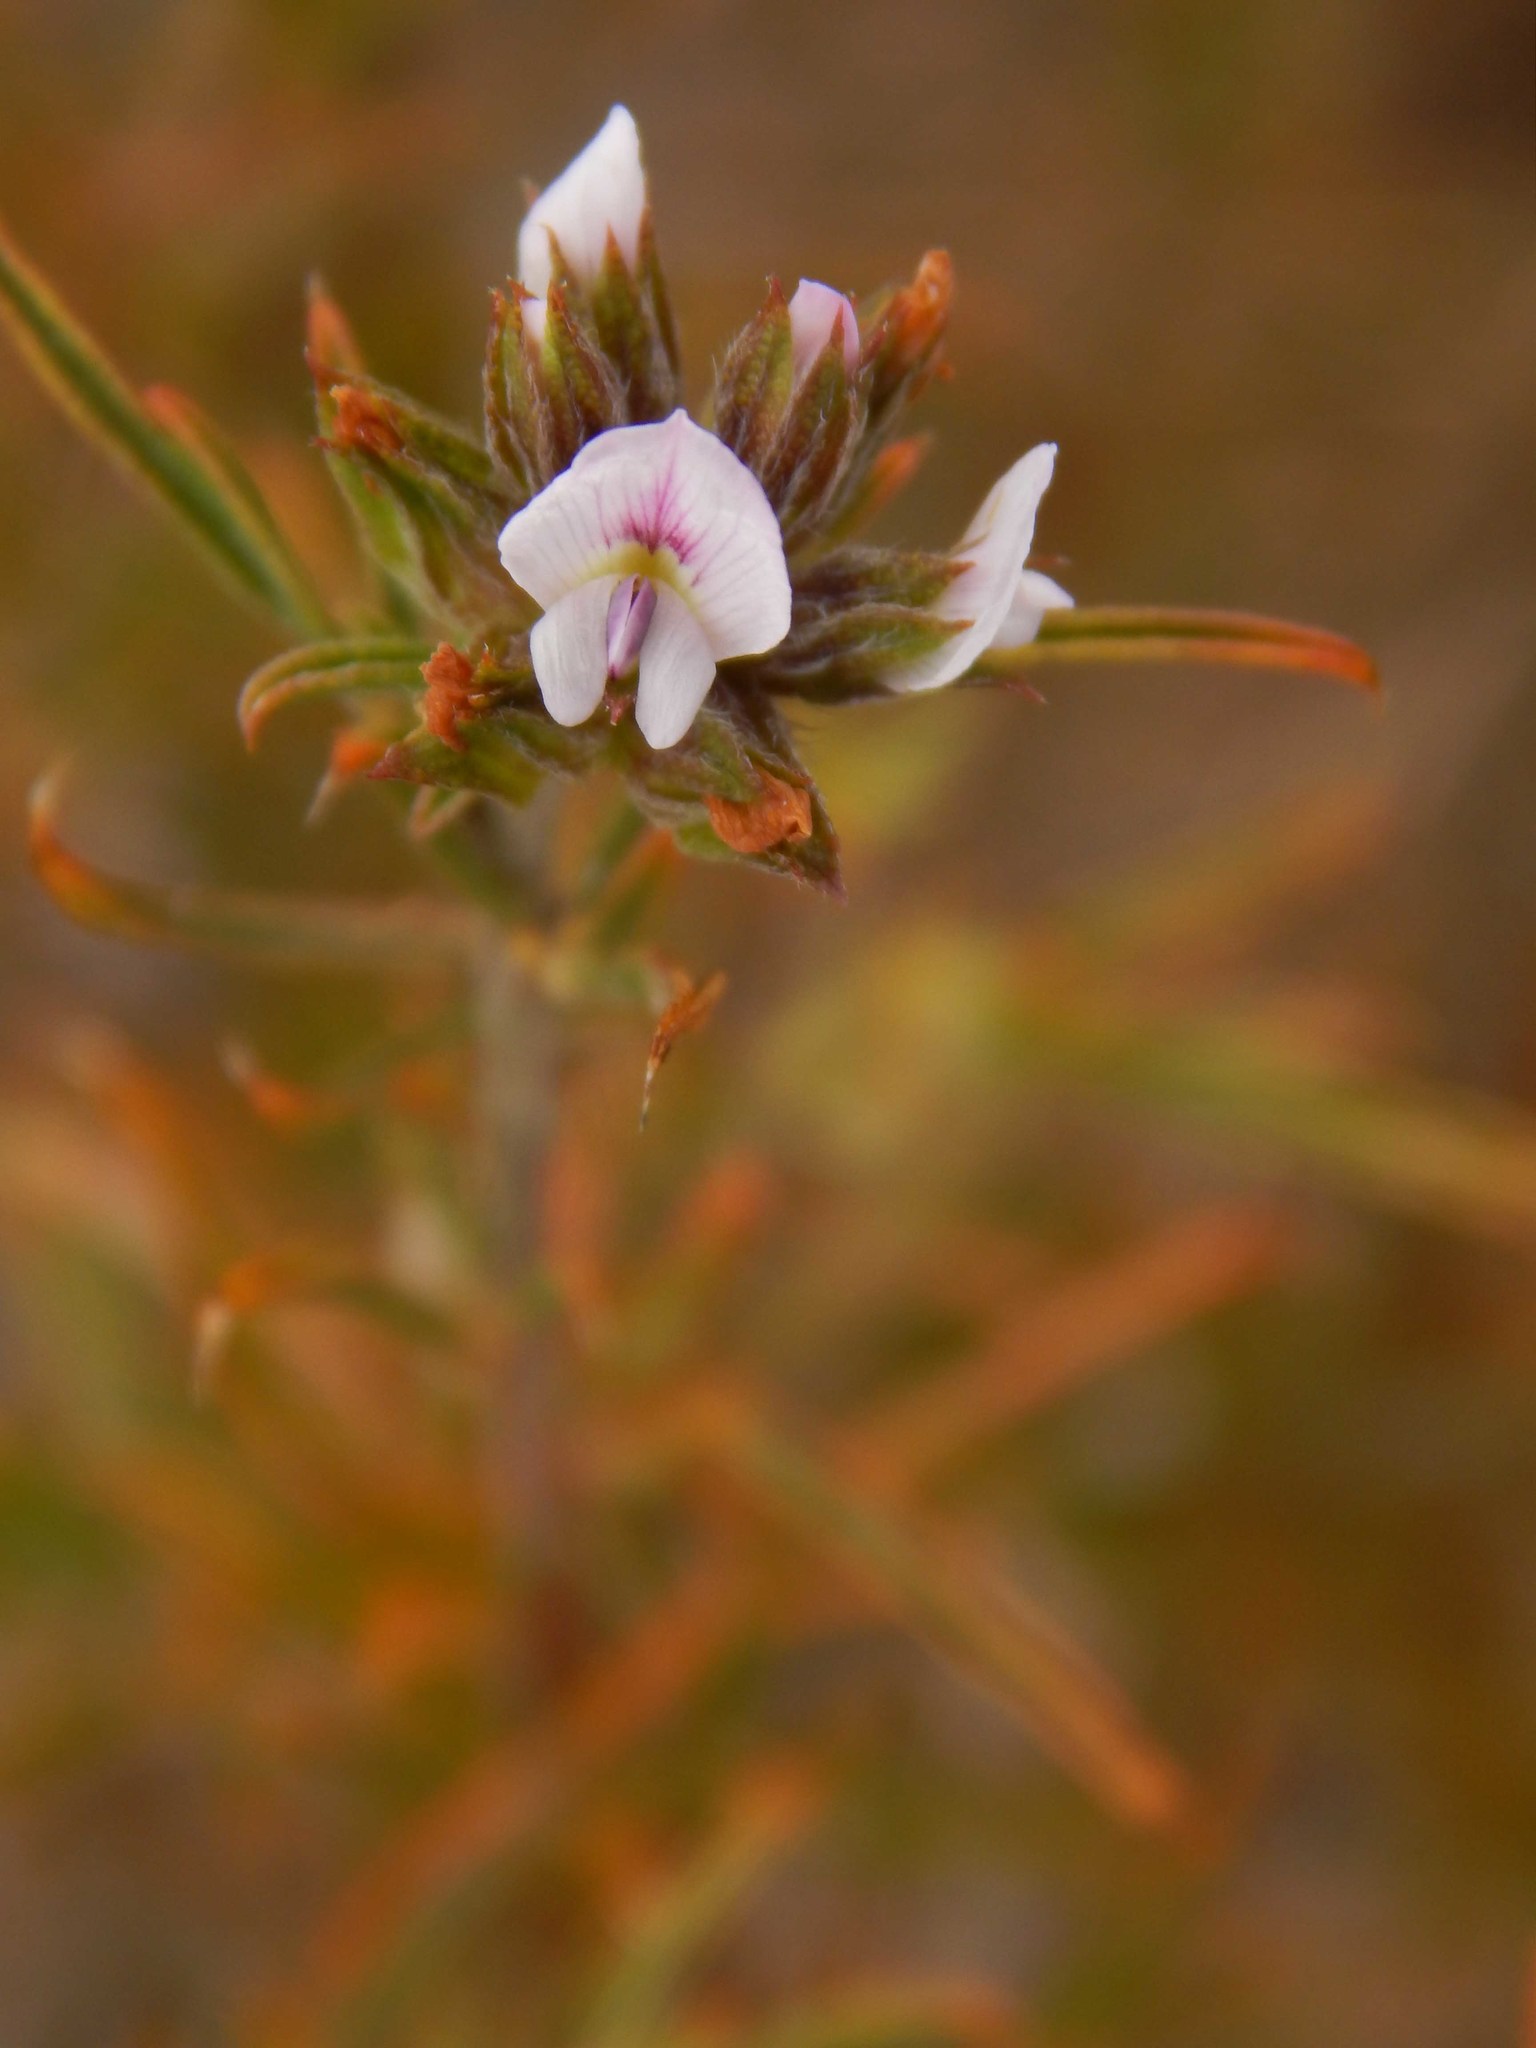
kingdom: Plantae
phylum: Tracheophyta
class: Magnoliopsida
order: Fabales
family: Fabaceae
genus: Psoralea
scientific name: Psoralea uncinata
